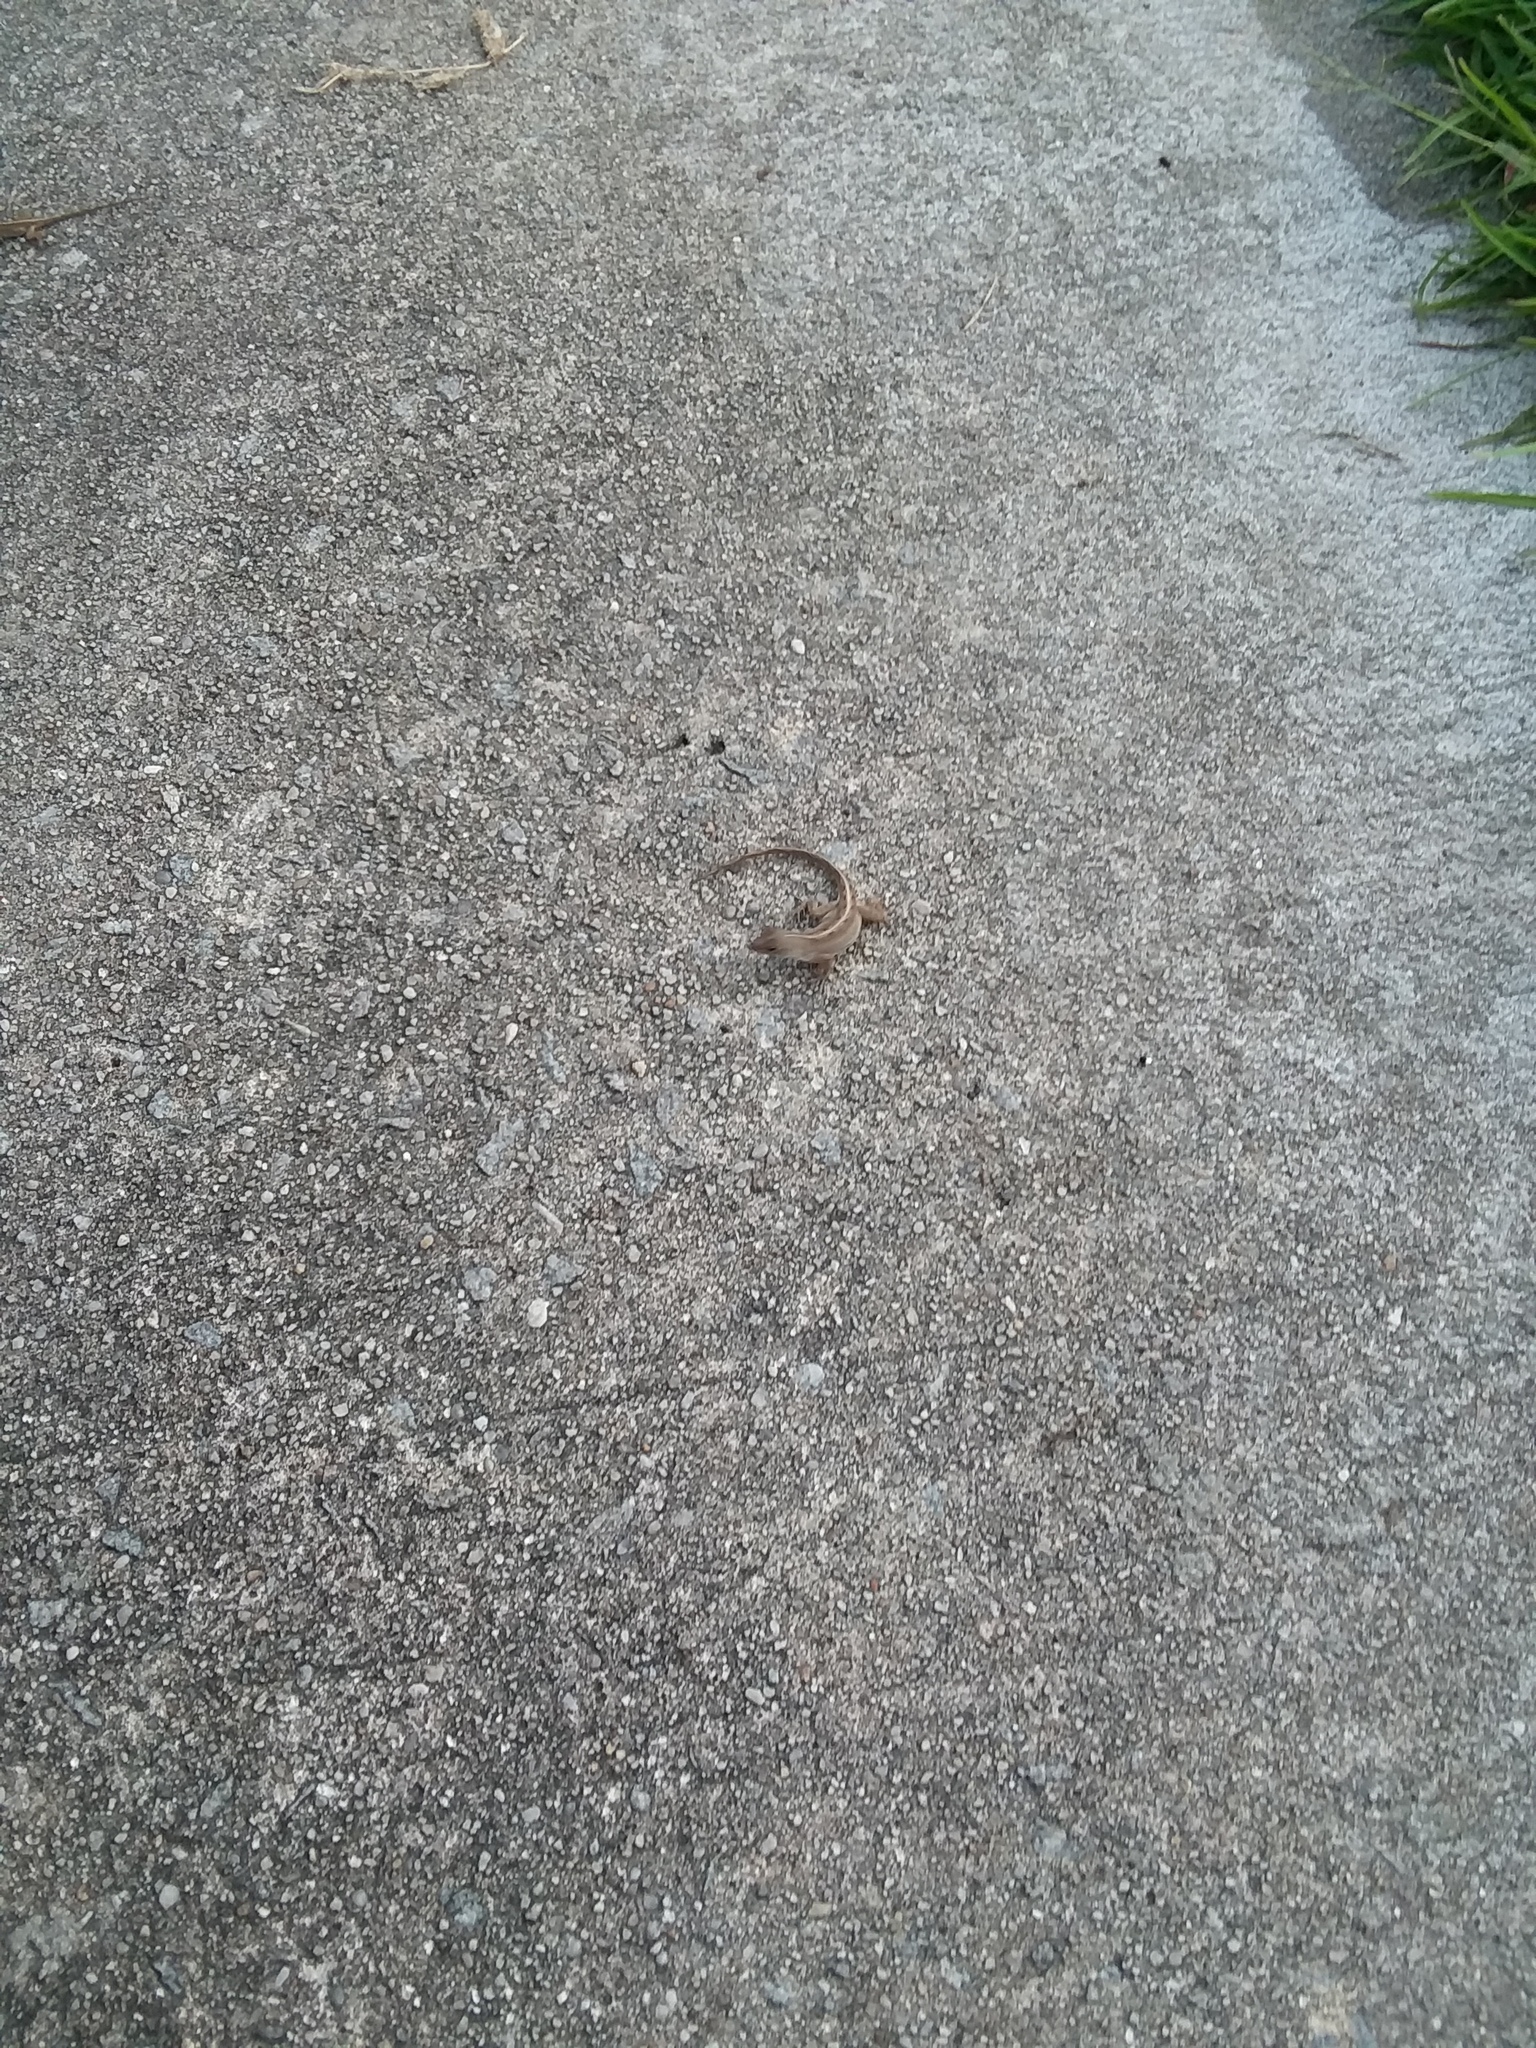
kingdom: Animalia
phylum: Chordata
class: Squamata
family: Dactyloidae
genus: Anolis
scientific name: Anolis sagrei
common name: Brown anole
